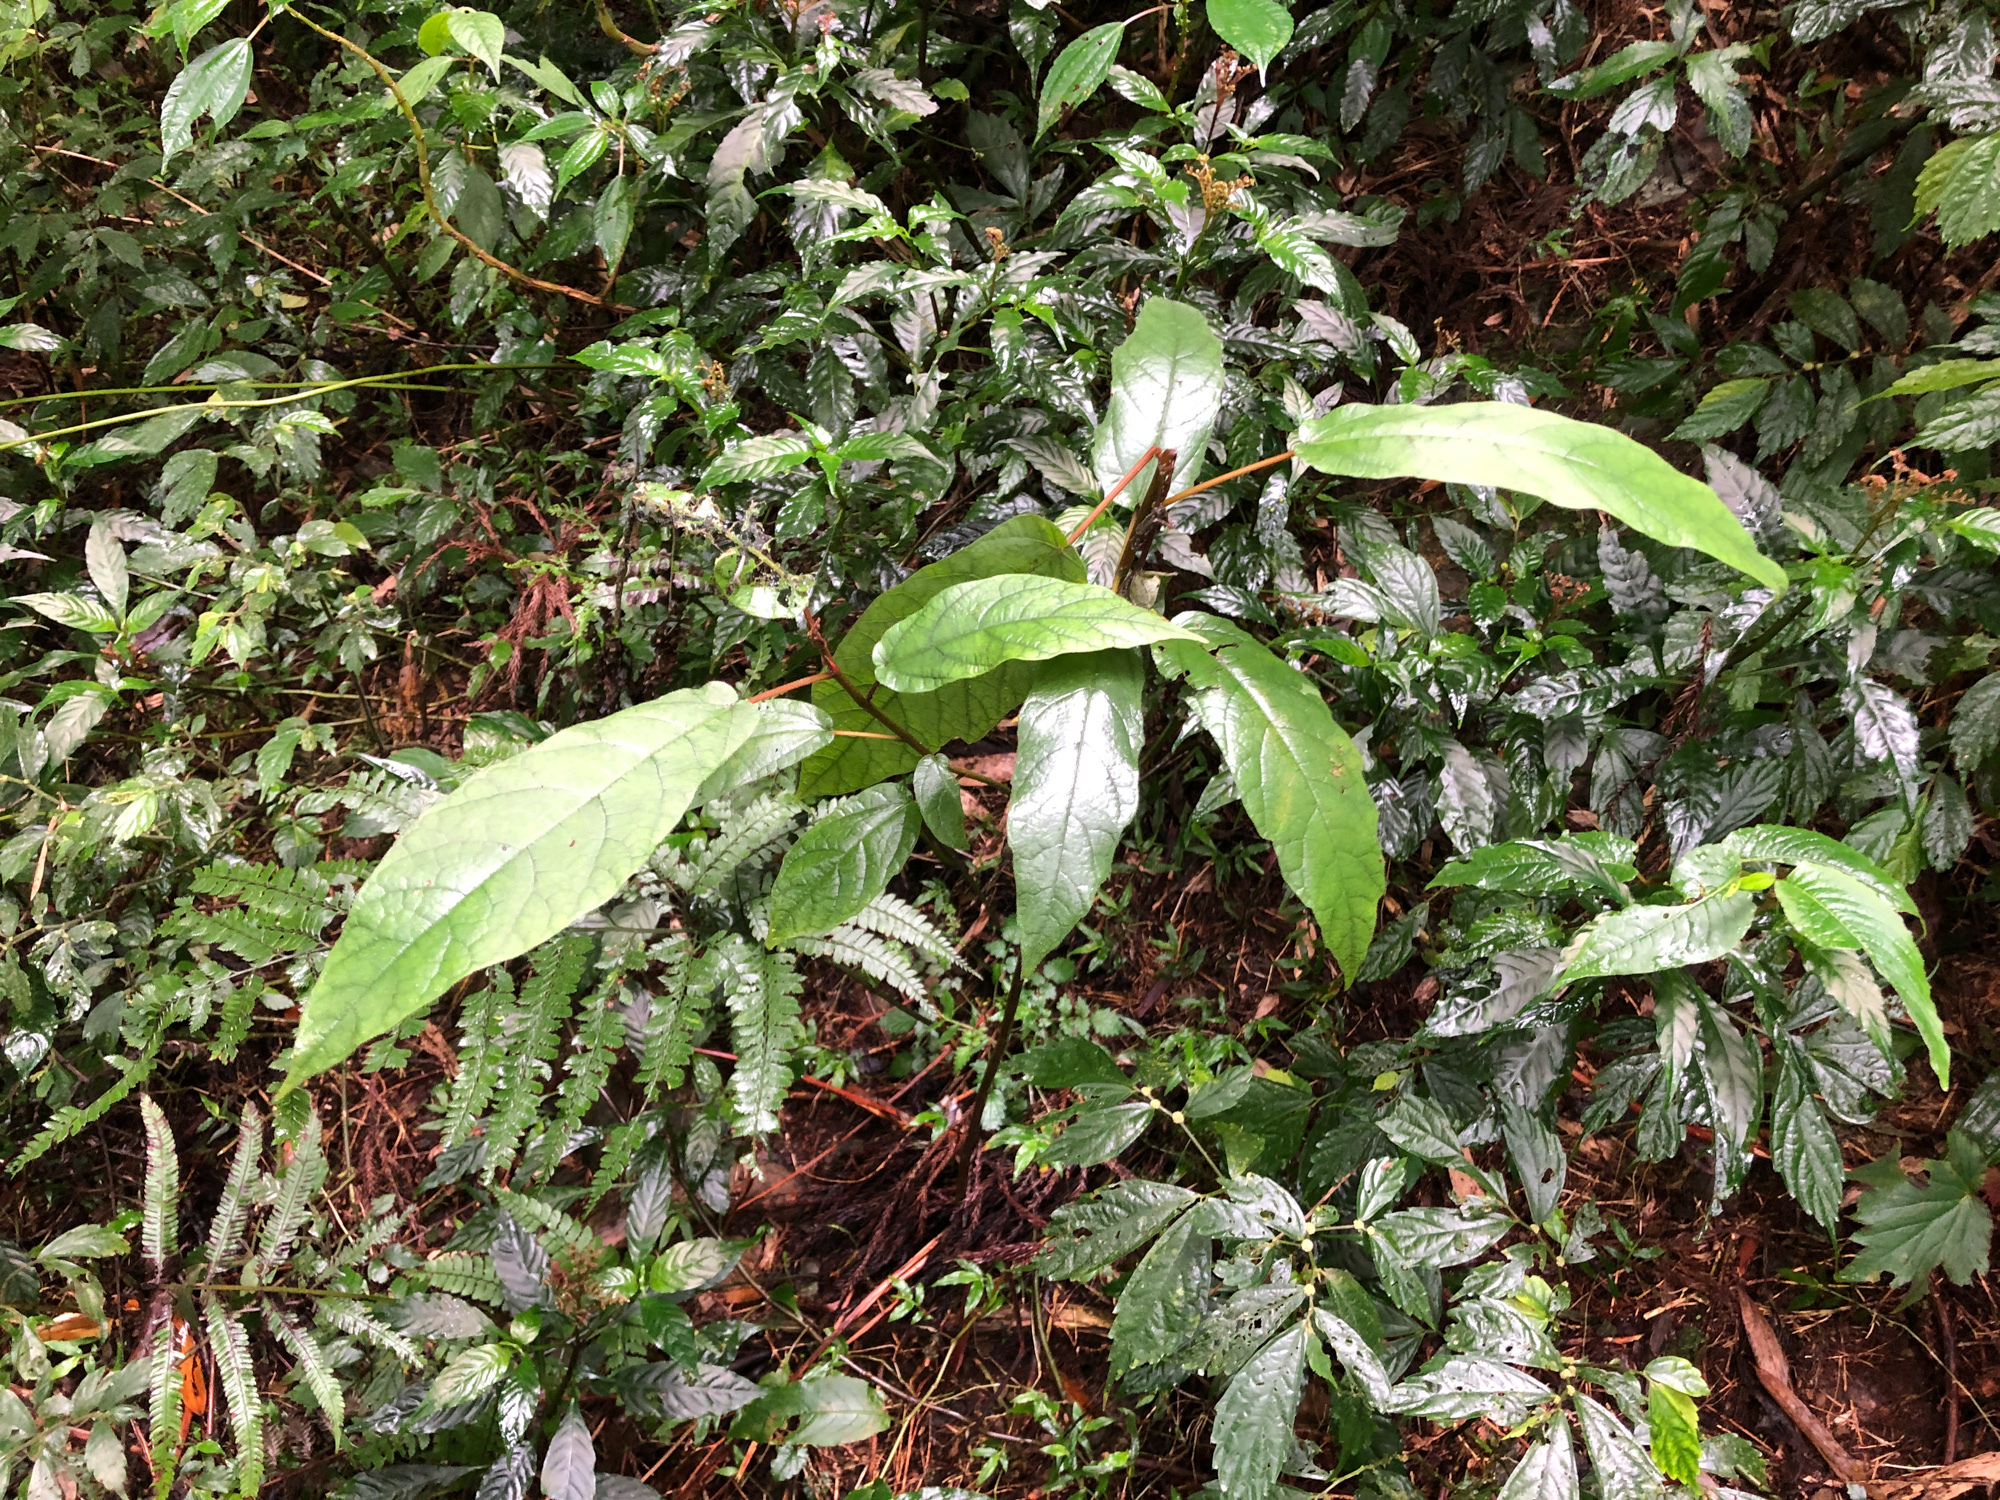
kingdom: Plantae
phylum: Tracheophyta
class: Magnoliopsida
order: Rosales
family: Moraceae
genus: Ficus
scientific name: Ficus erecta
